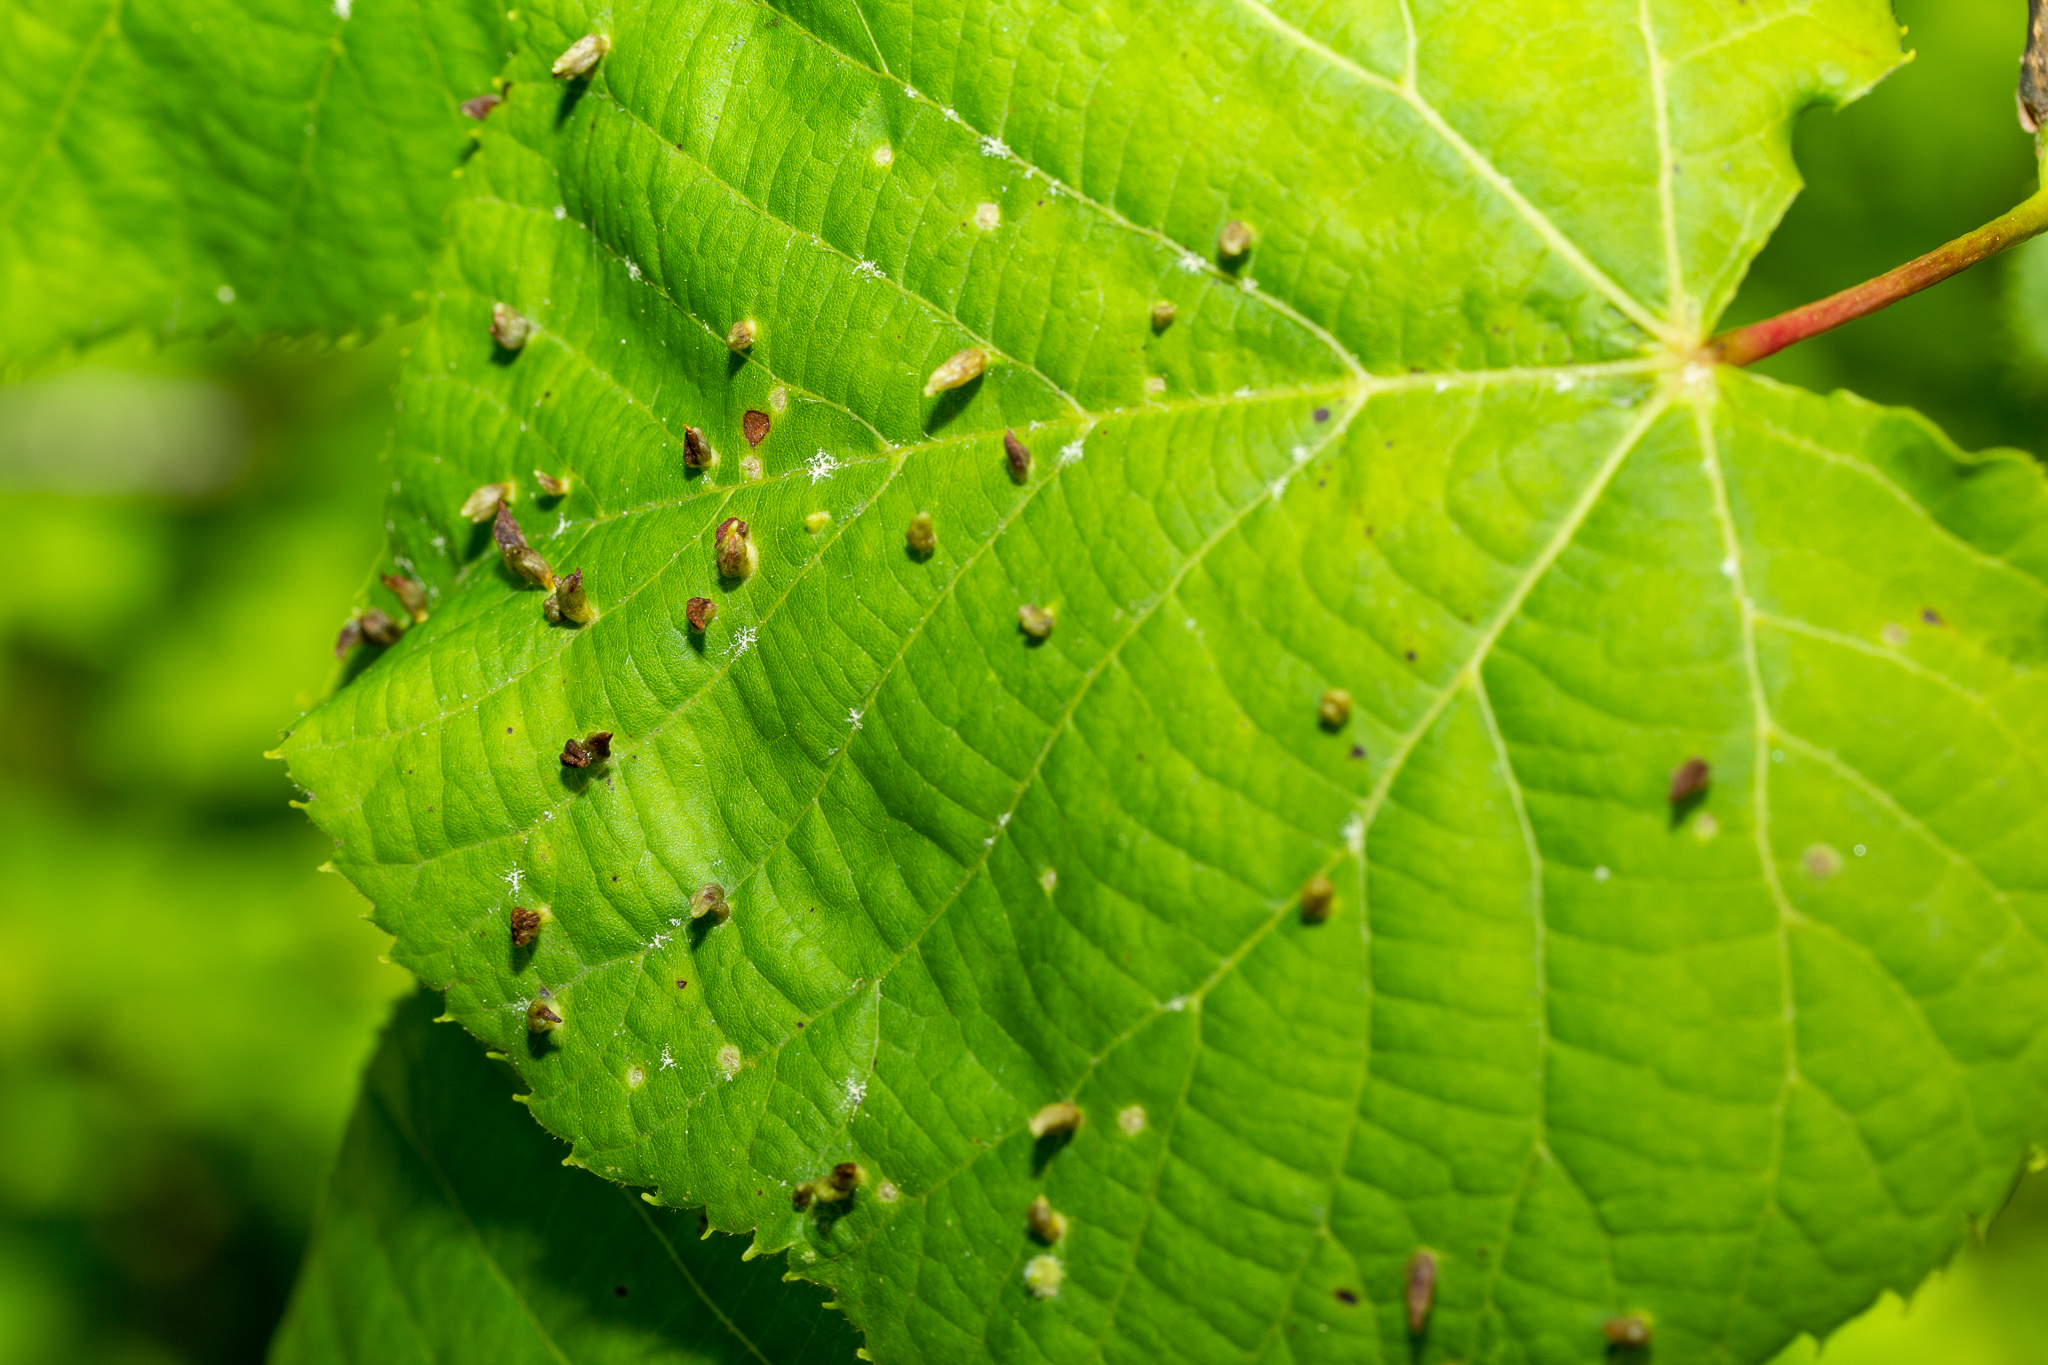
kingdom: Animalia
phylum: Arthropoda
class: Arachnida
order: Trombidiformes
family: Eriophyidae
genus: Eriophyes
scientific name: Eriophyes tiliae
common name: Red nail gall mite
